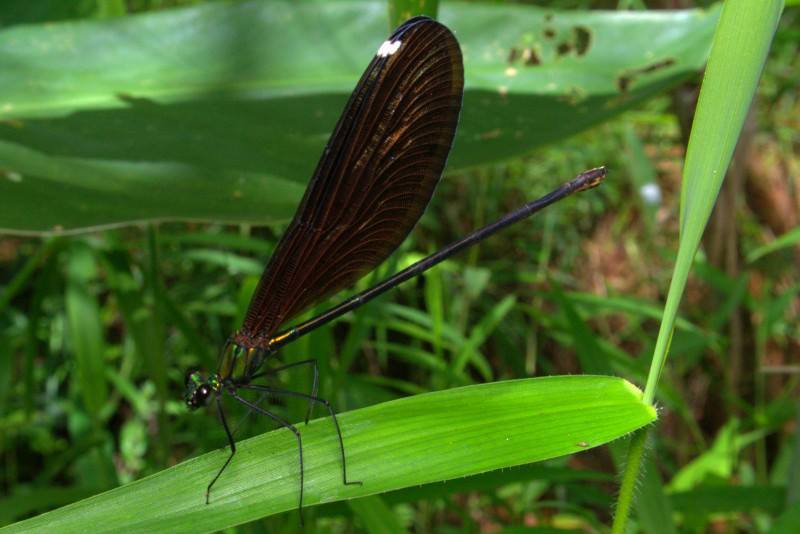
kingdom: Animalia
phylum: Arthropoda
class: Insecta
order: Odonata
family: Calopterygidae
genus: Matrona
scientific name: Matrona basilaris
